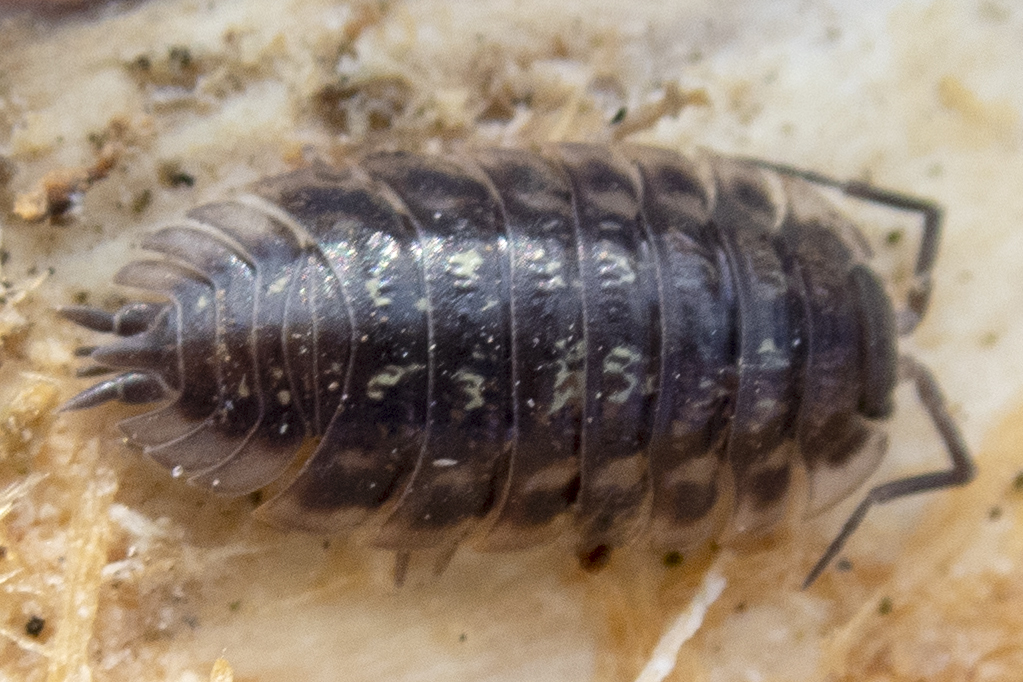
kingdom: Animalia
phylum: Arthropoda
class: Malacostraca
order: Isopoda
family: Oniscidae
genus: Oniscus
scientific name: Oniscus asellus
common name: Common shiny woodlouse
